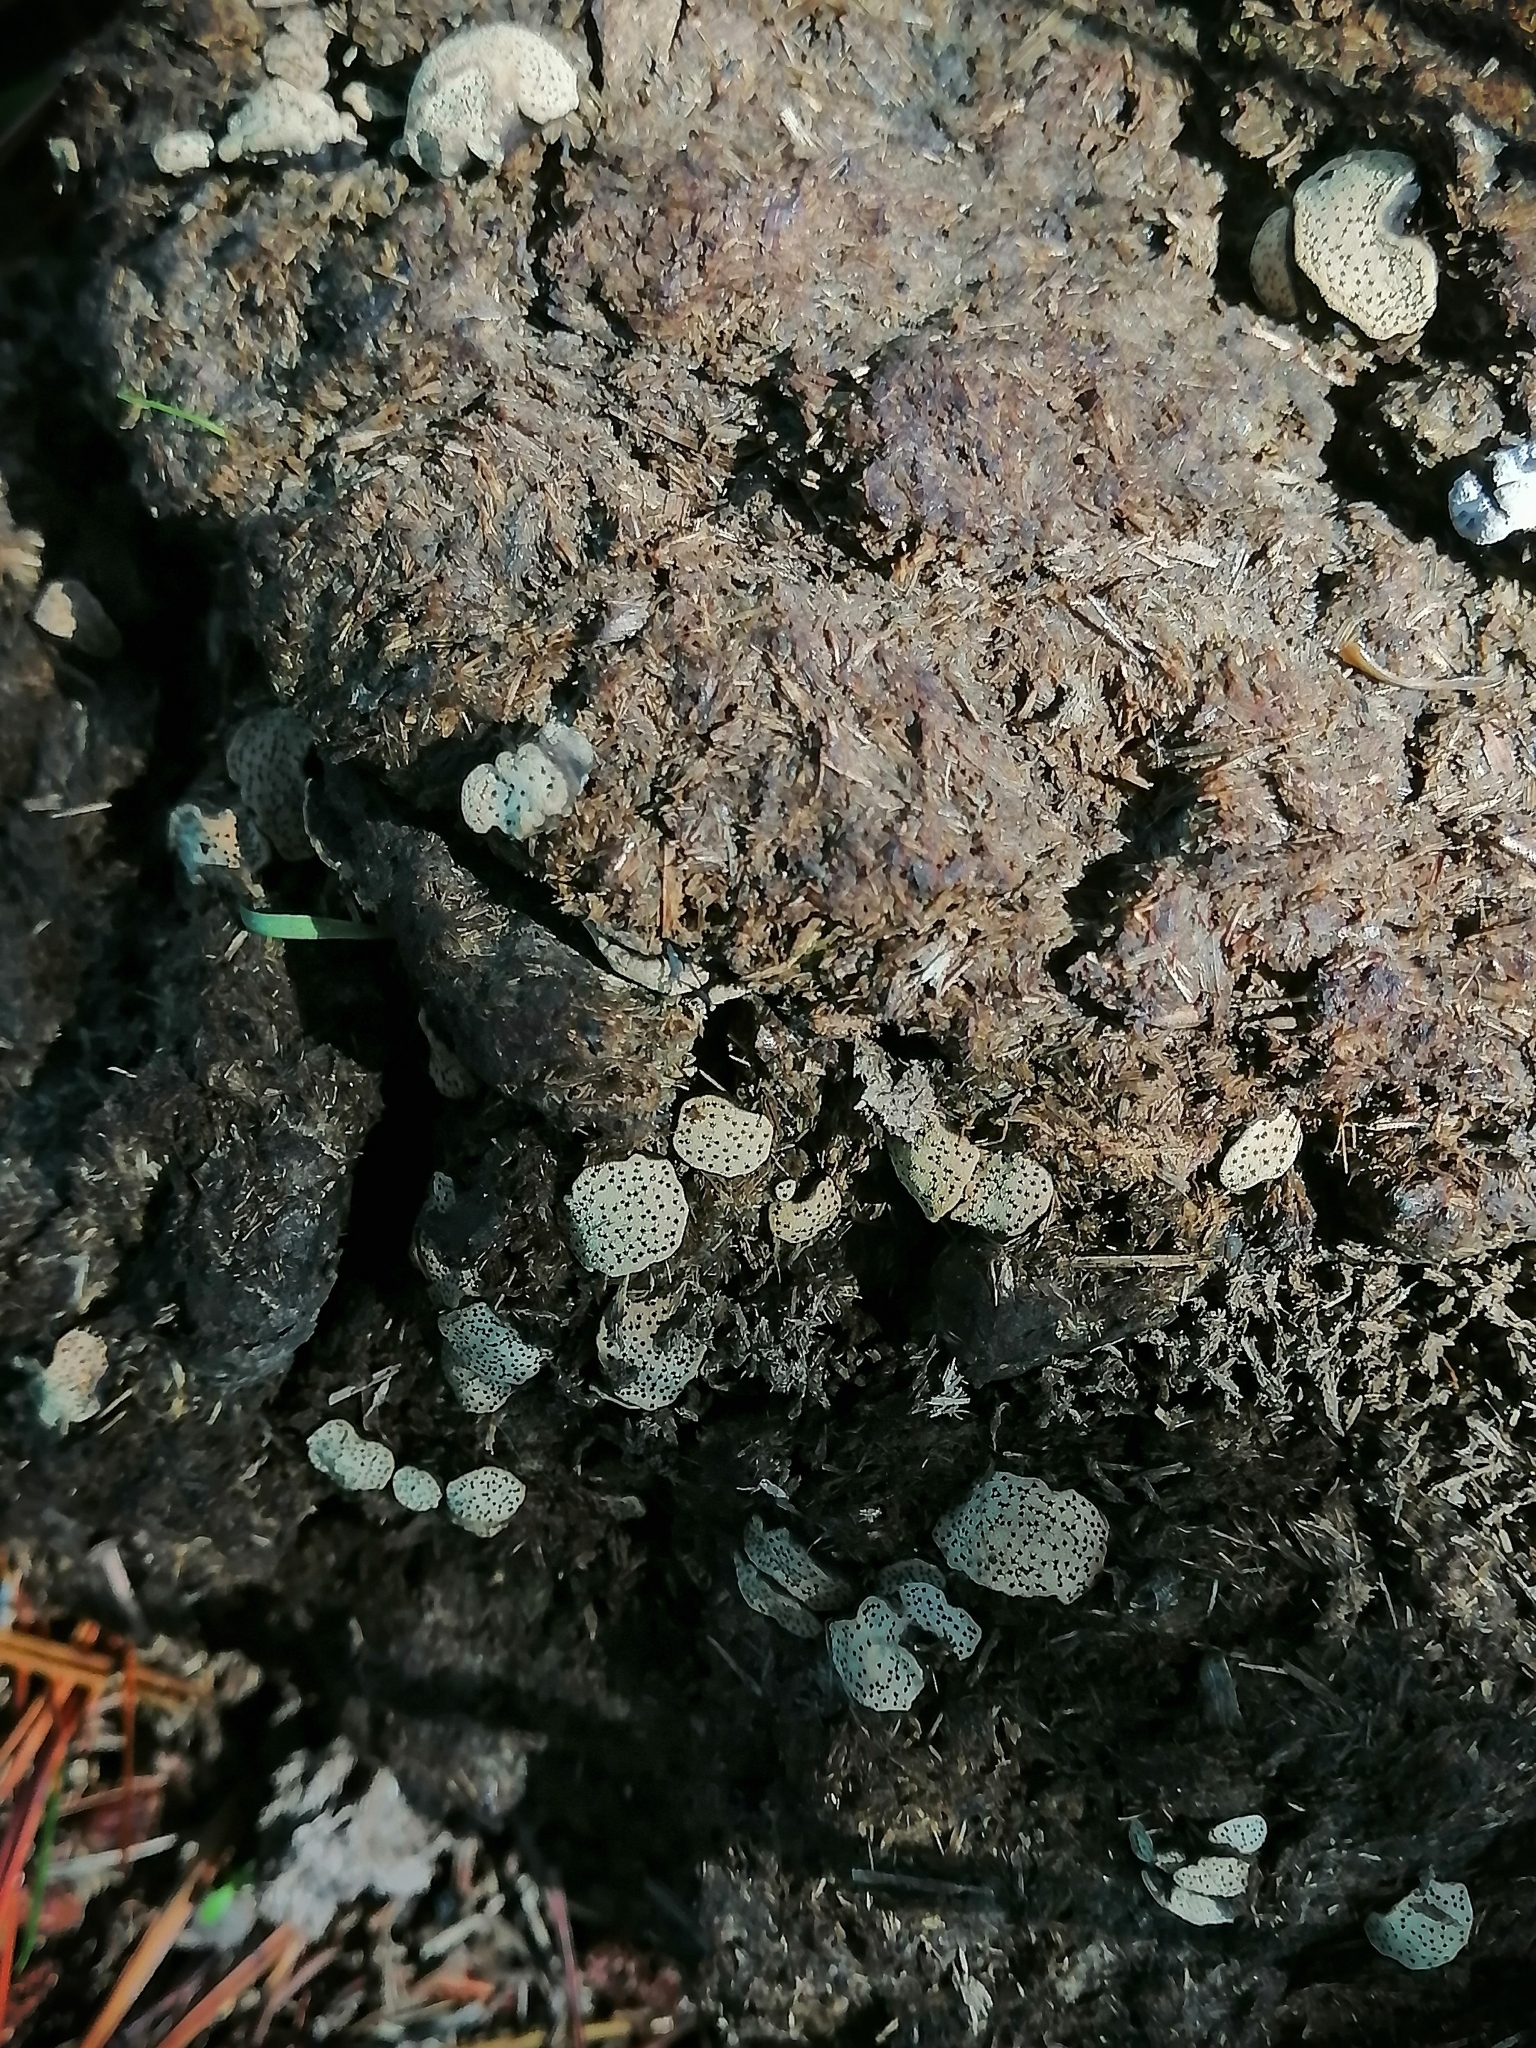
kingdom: Fungi
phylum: Ascomycota
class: Sordariomycetes
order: Xylariales
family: Xylariaceae
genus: Poronia
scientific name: Poronia punctata
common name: Nail fungus
